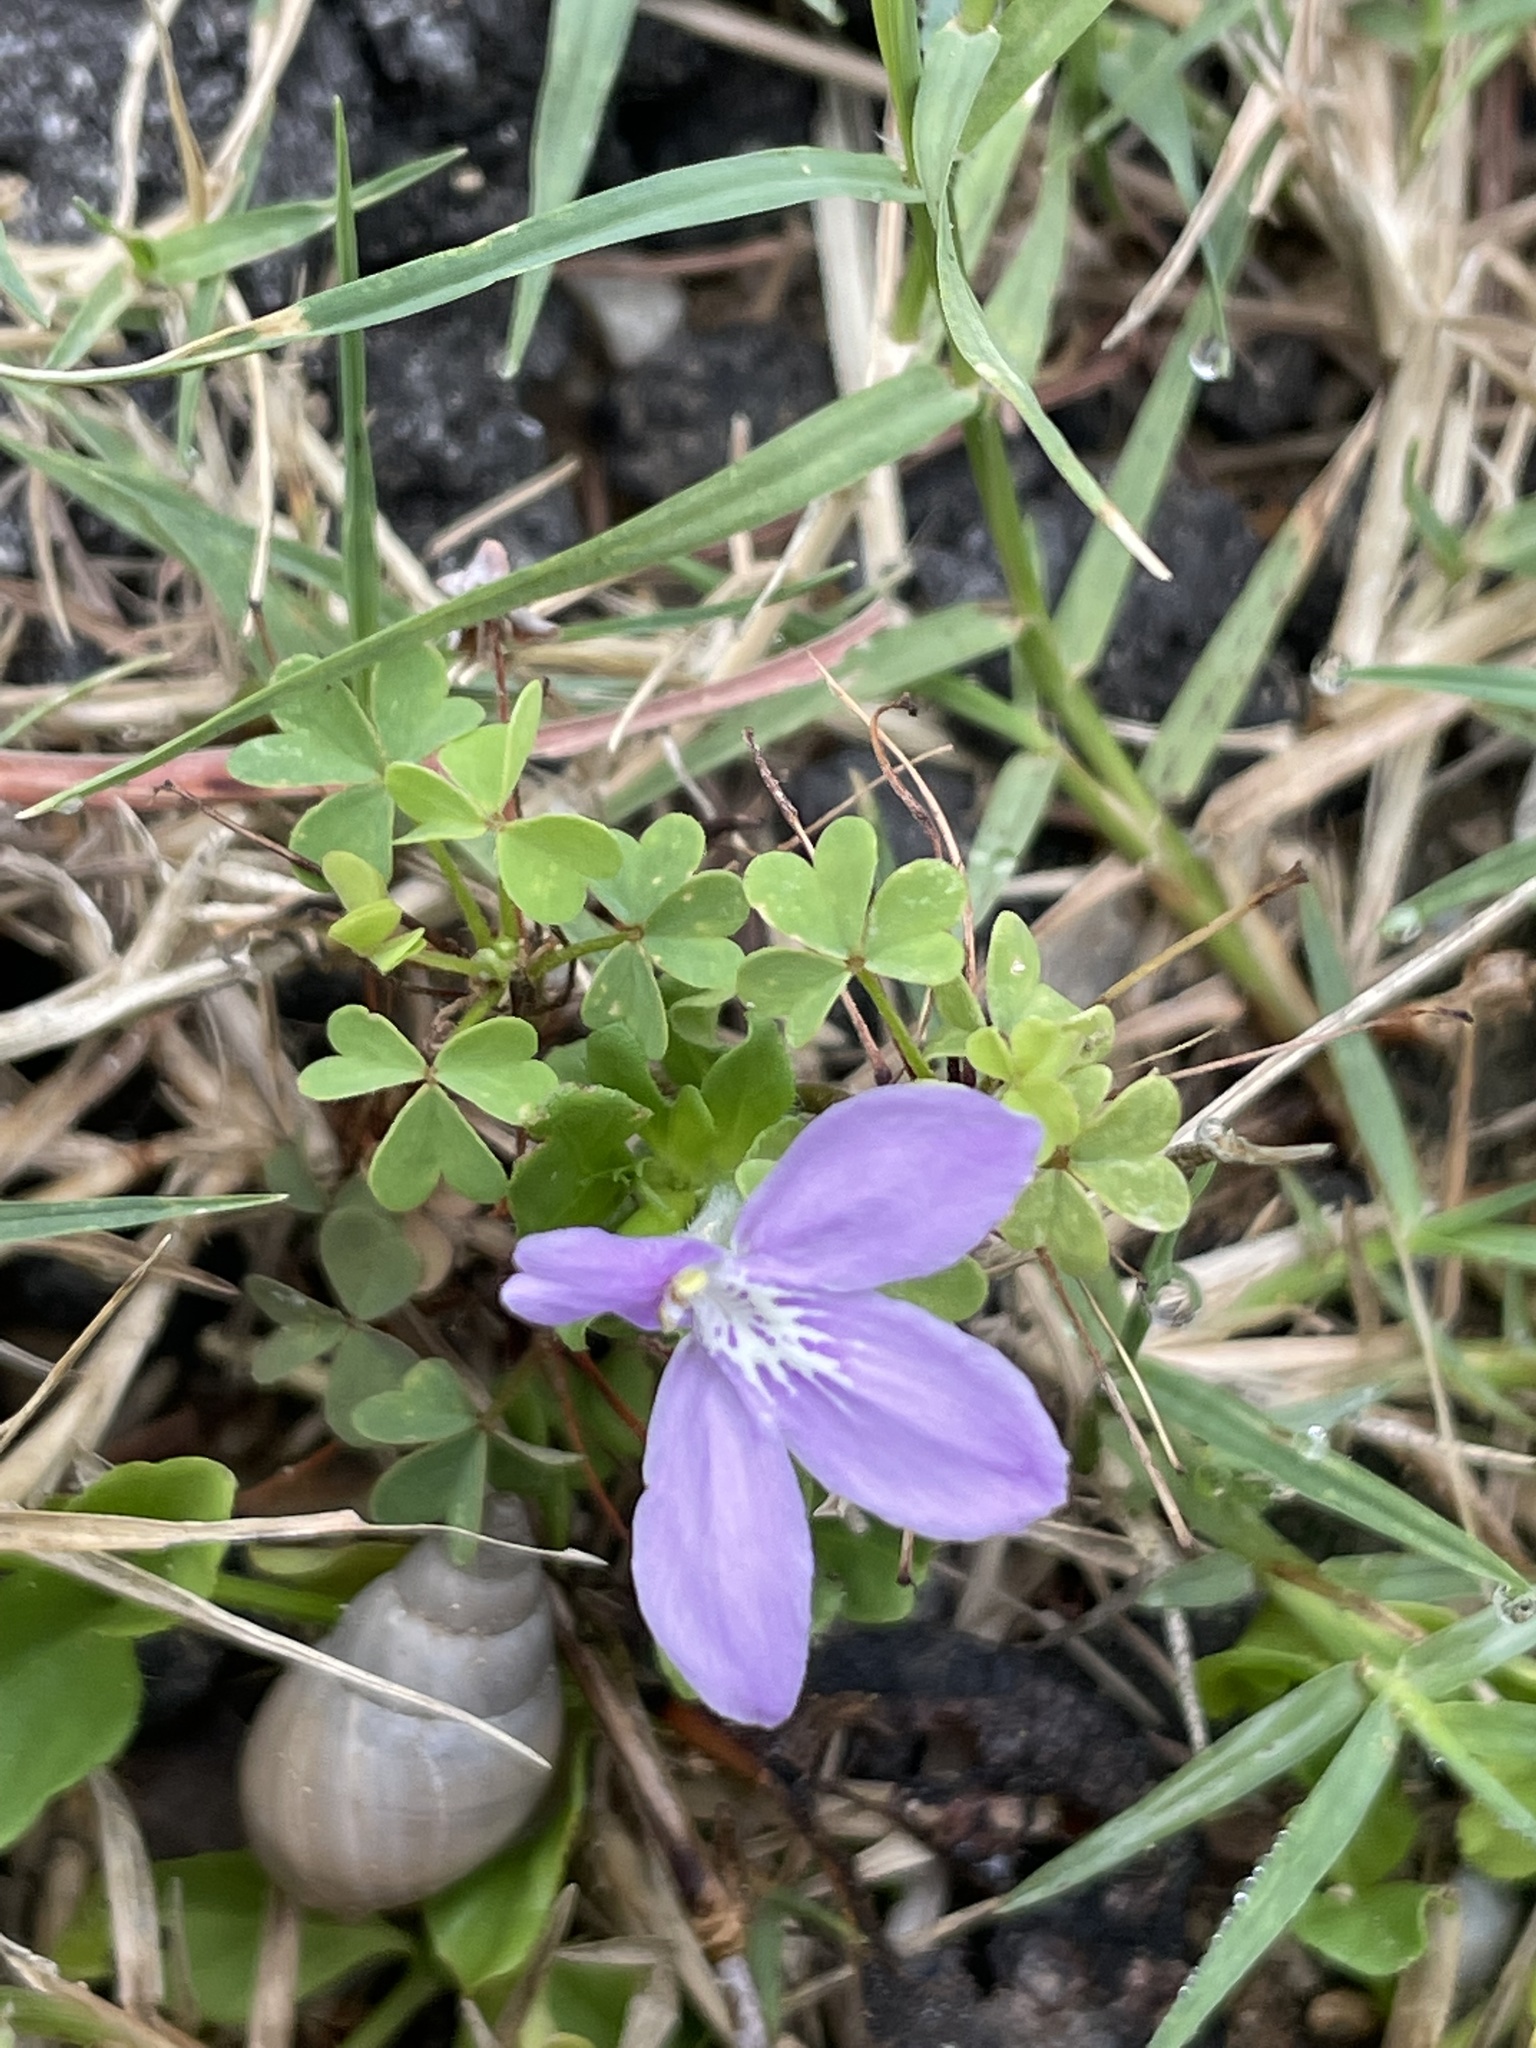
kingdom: Plantae
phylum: Tracheophyta
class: Magnoliopsida
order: Lamiales
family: Acanthaceae
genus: Justicia
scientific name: Justicia pilosella
